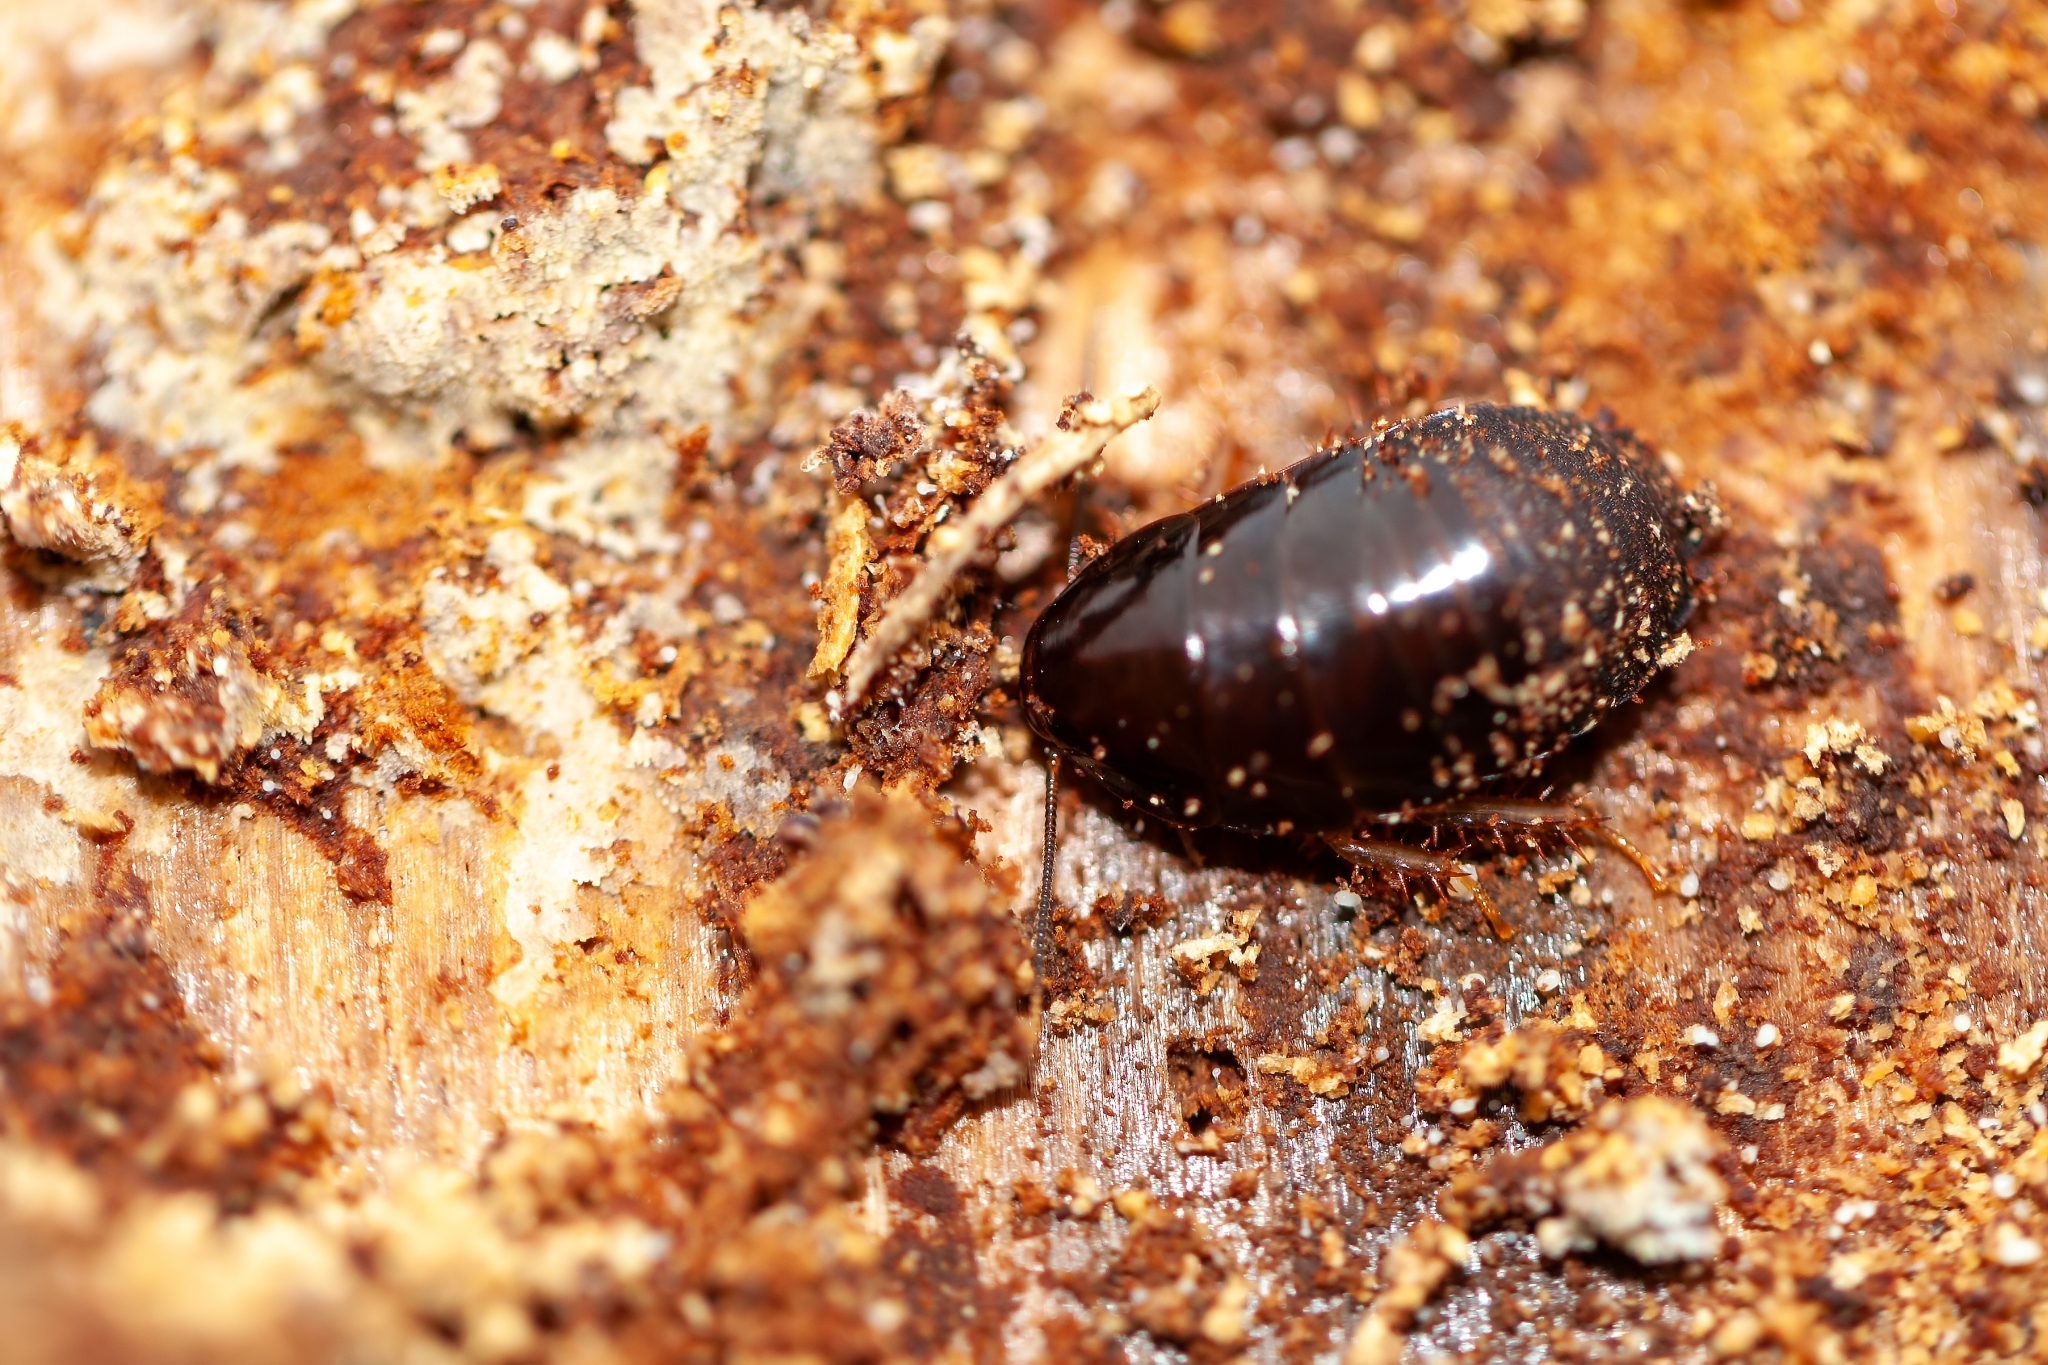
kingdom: Animalia
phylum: Arthropoda
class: Insecta
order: Blattodea
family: Blaberidae
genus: Pycnoscelus
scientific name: Pycnoscelus surinamensis
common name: Surinam cockroach
